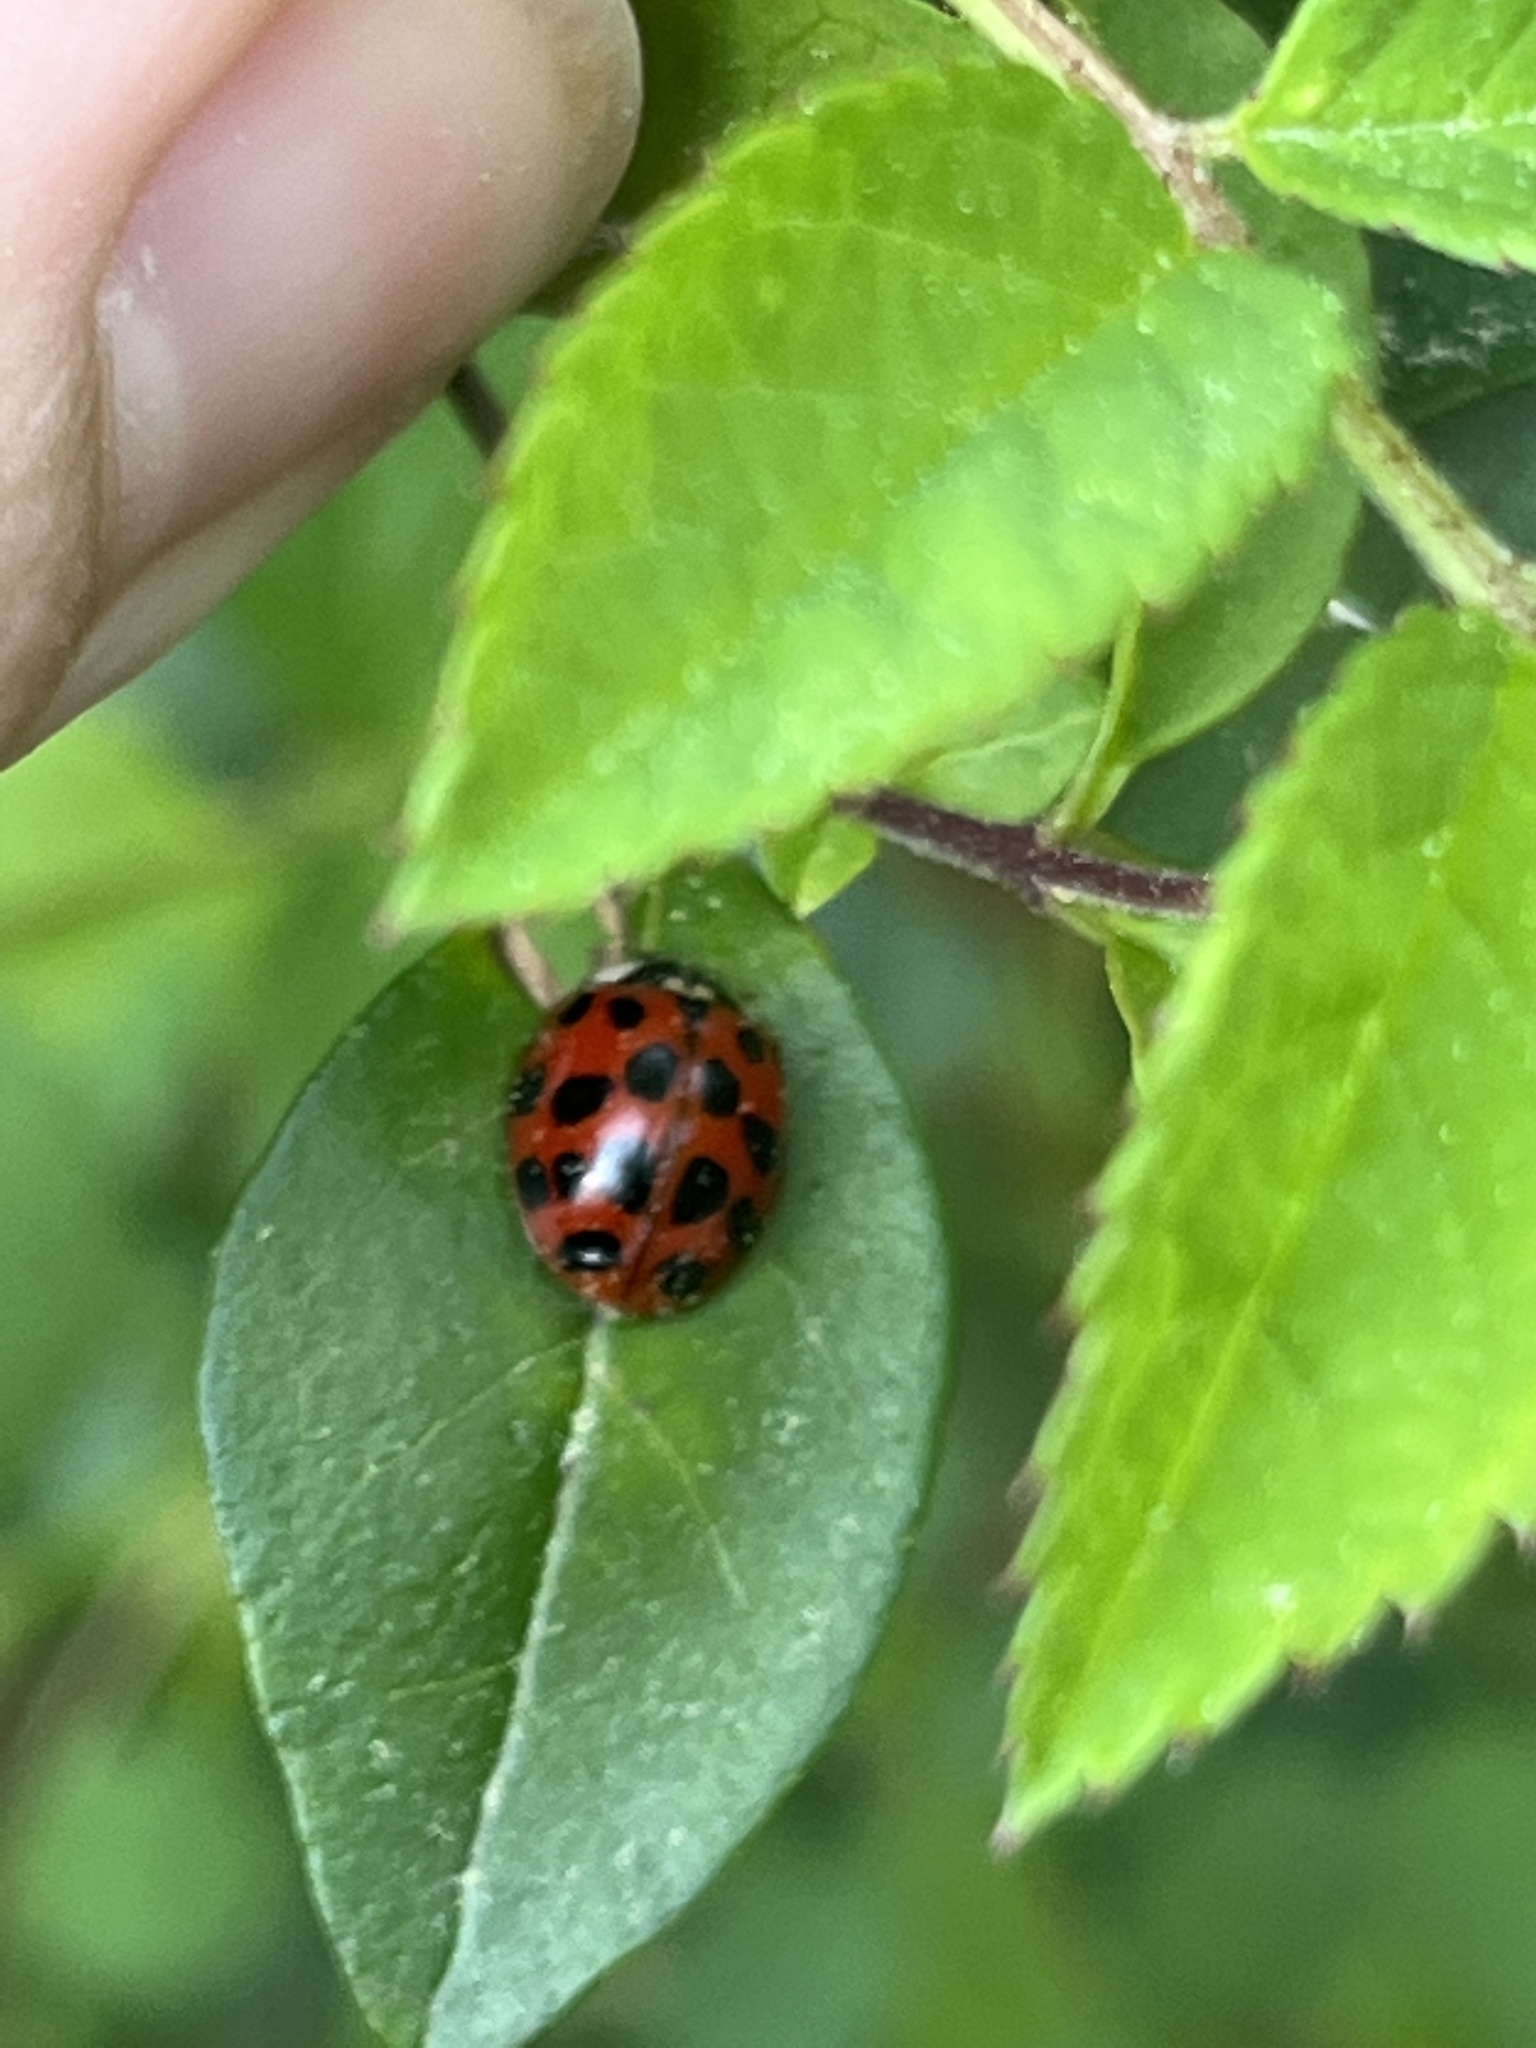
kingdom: Animalia
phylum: Arthropoda
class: Insecta
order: Coleoptera
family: Coccinellidae
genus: Harmonia
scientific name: Harmonia axyridis
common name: Harlequin ladybird
